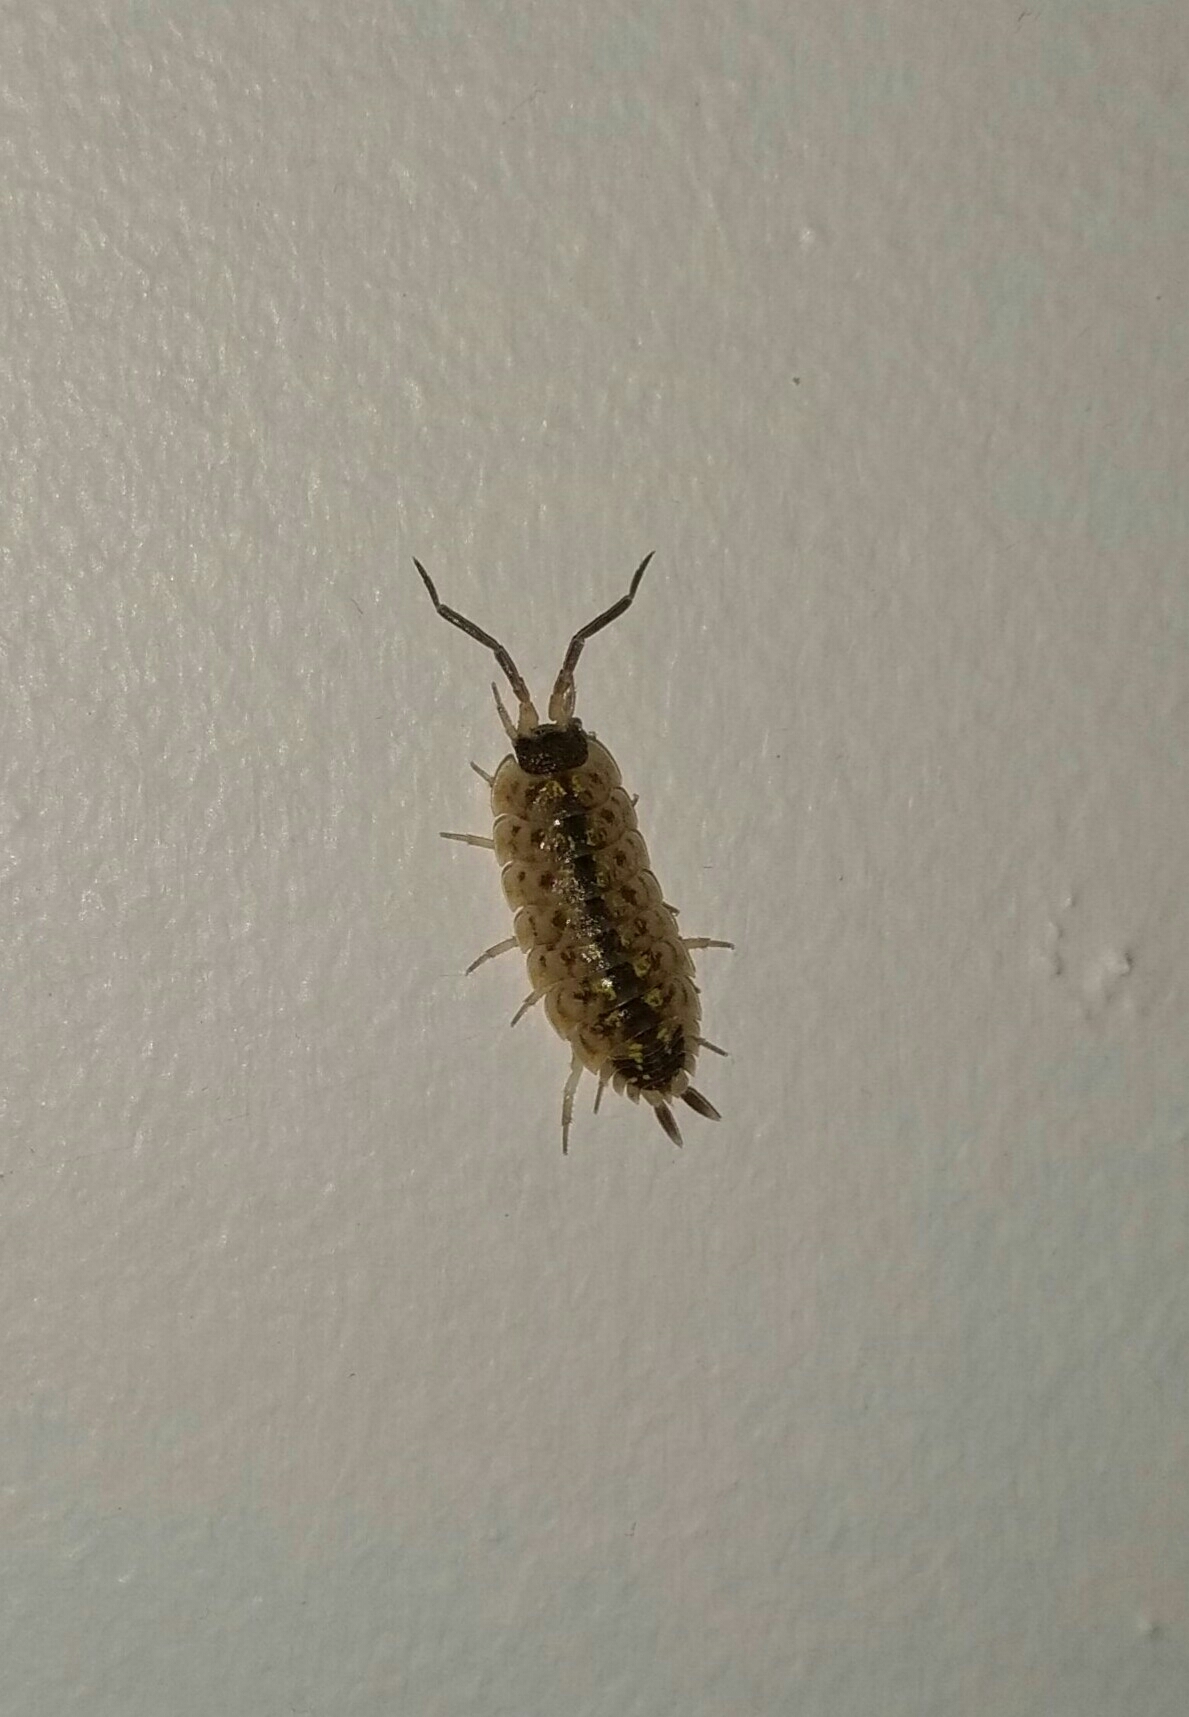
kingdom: Animalia
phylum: Arthropoda
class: Malacostraca
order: Isopoda
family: Porcellionidae
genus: Porcellio
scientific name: Porcellio spinicornis
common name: Painted woodlouse
